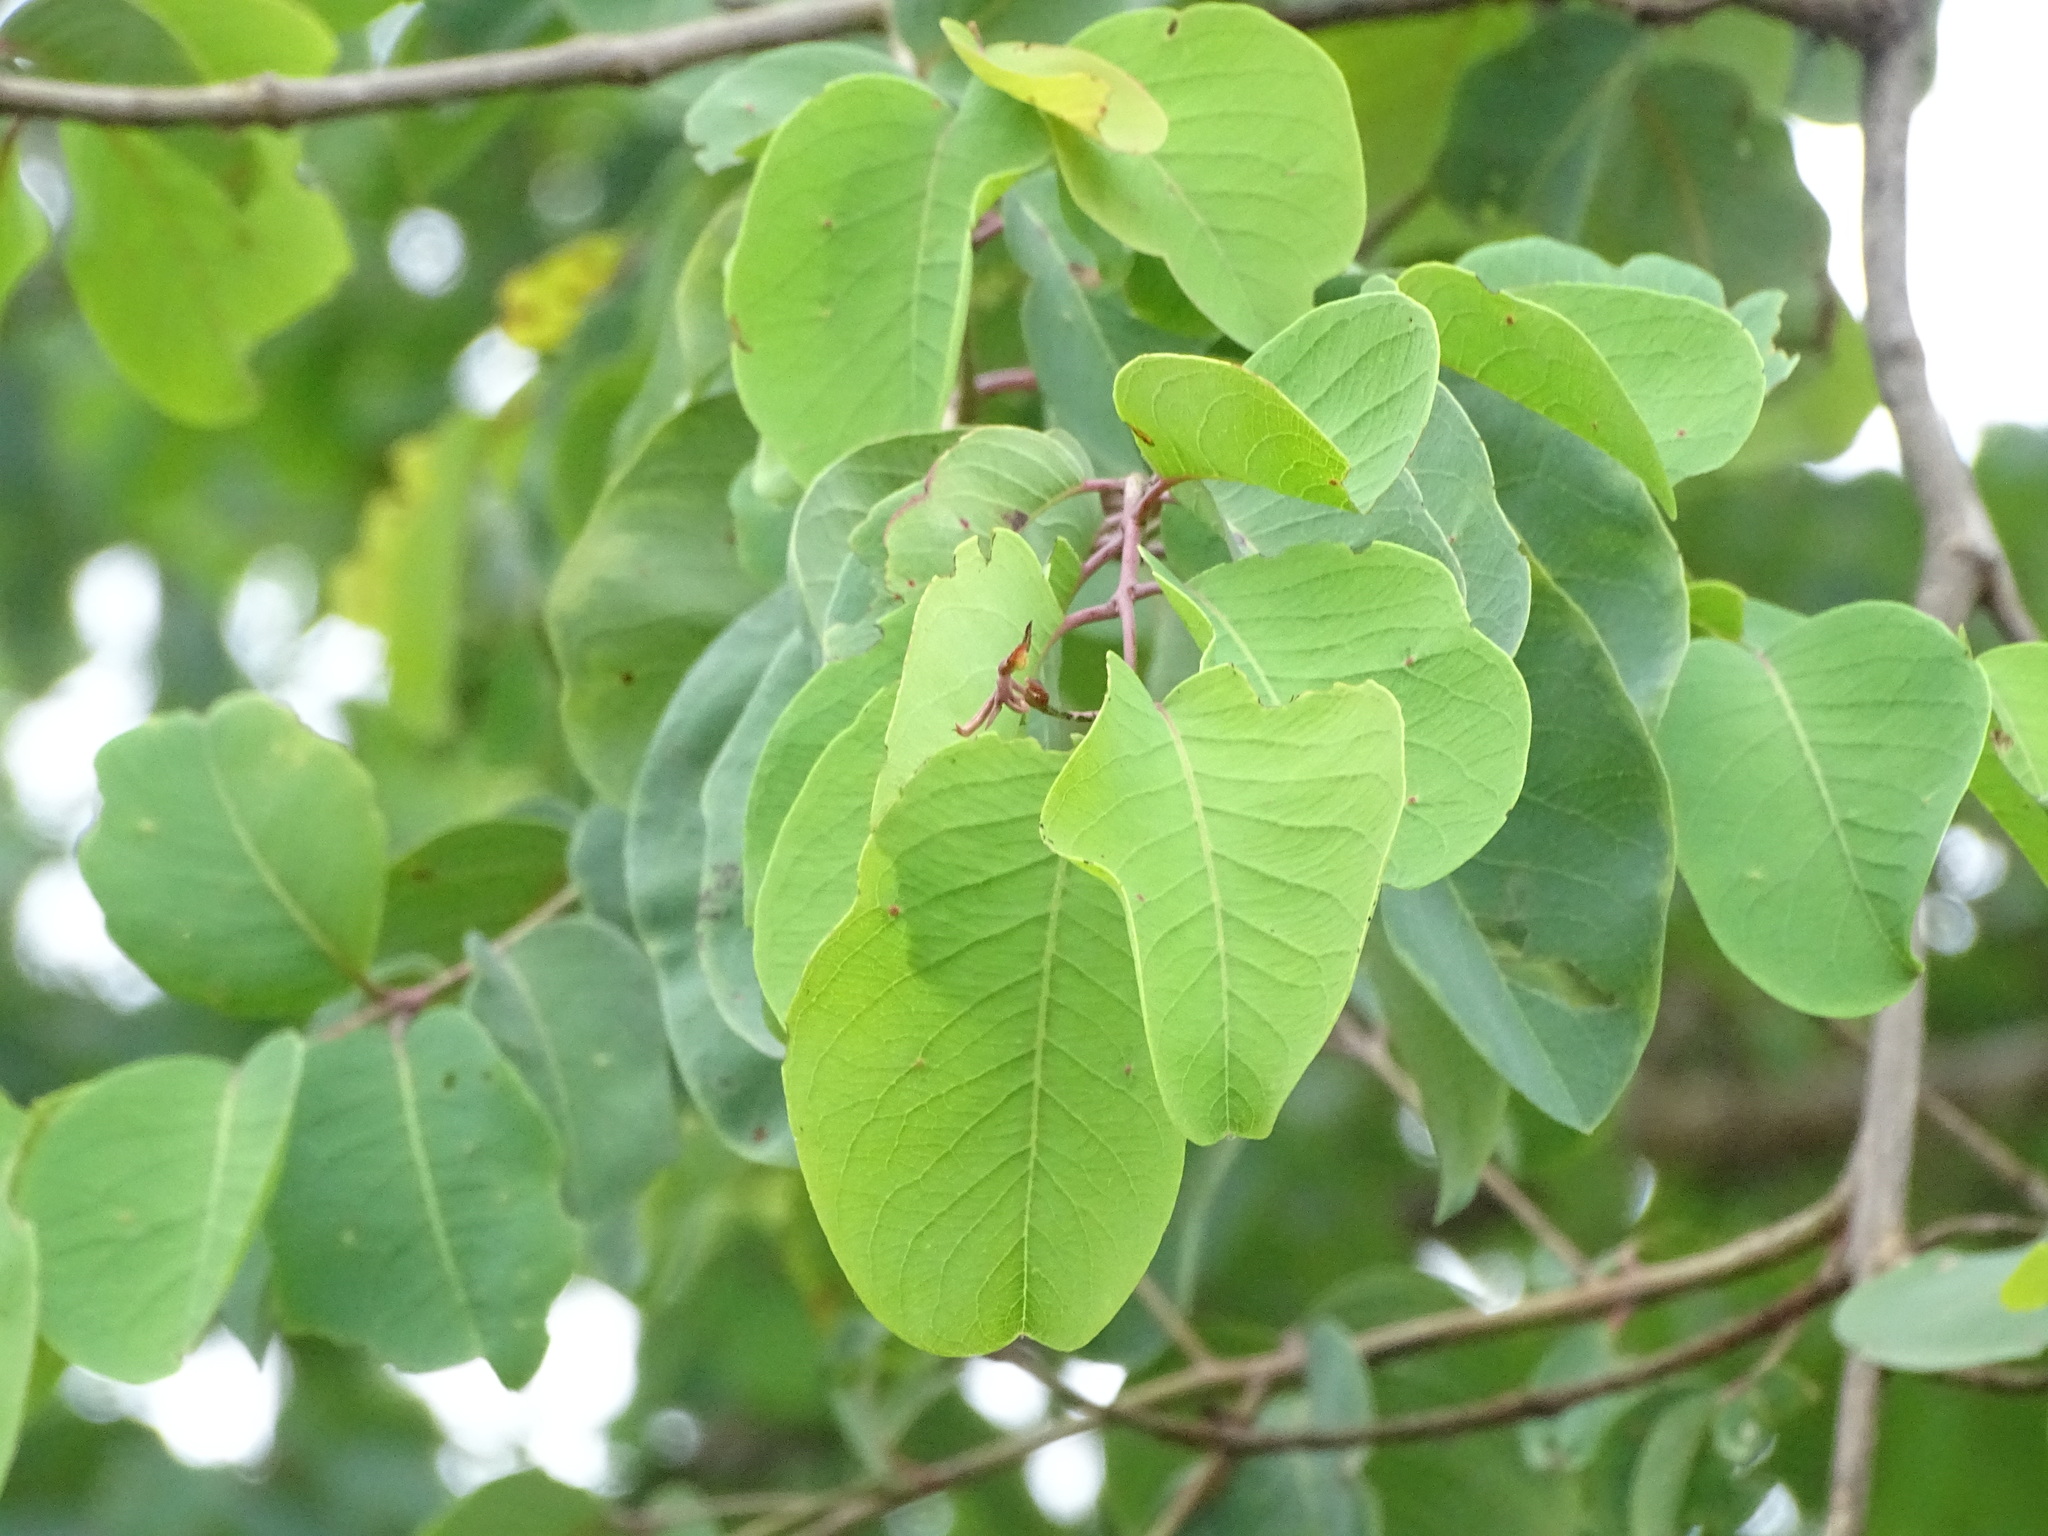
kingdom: Plantae
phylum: Tracheophyta
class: Magnoliopsida
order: Myrtales
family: Combretaceae
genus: Terminalia
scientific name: Terminalia latifolia
